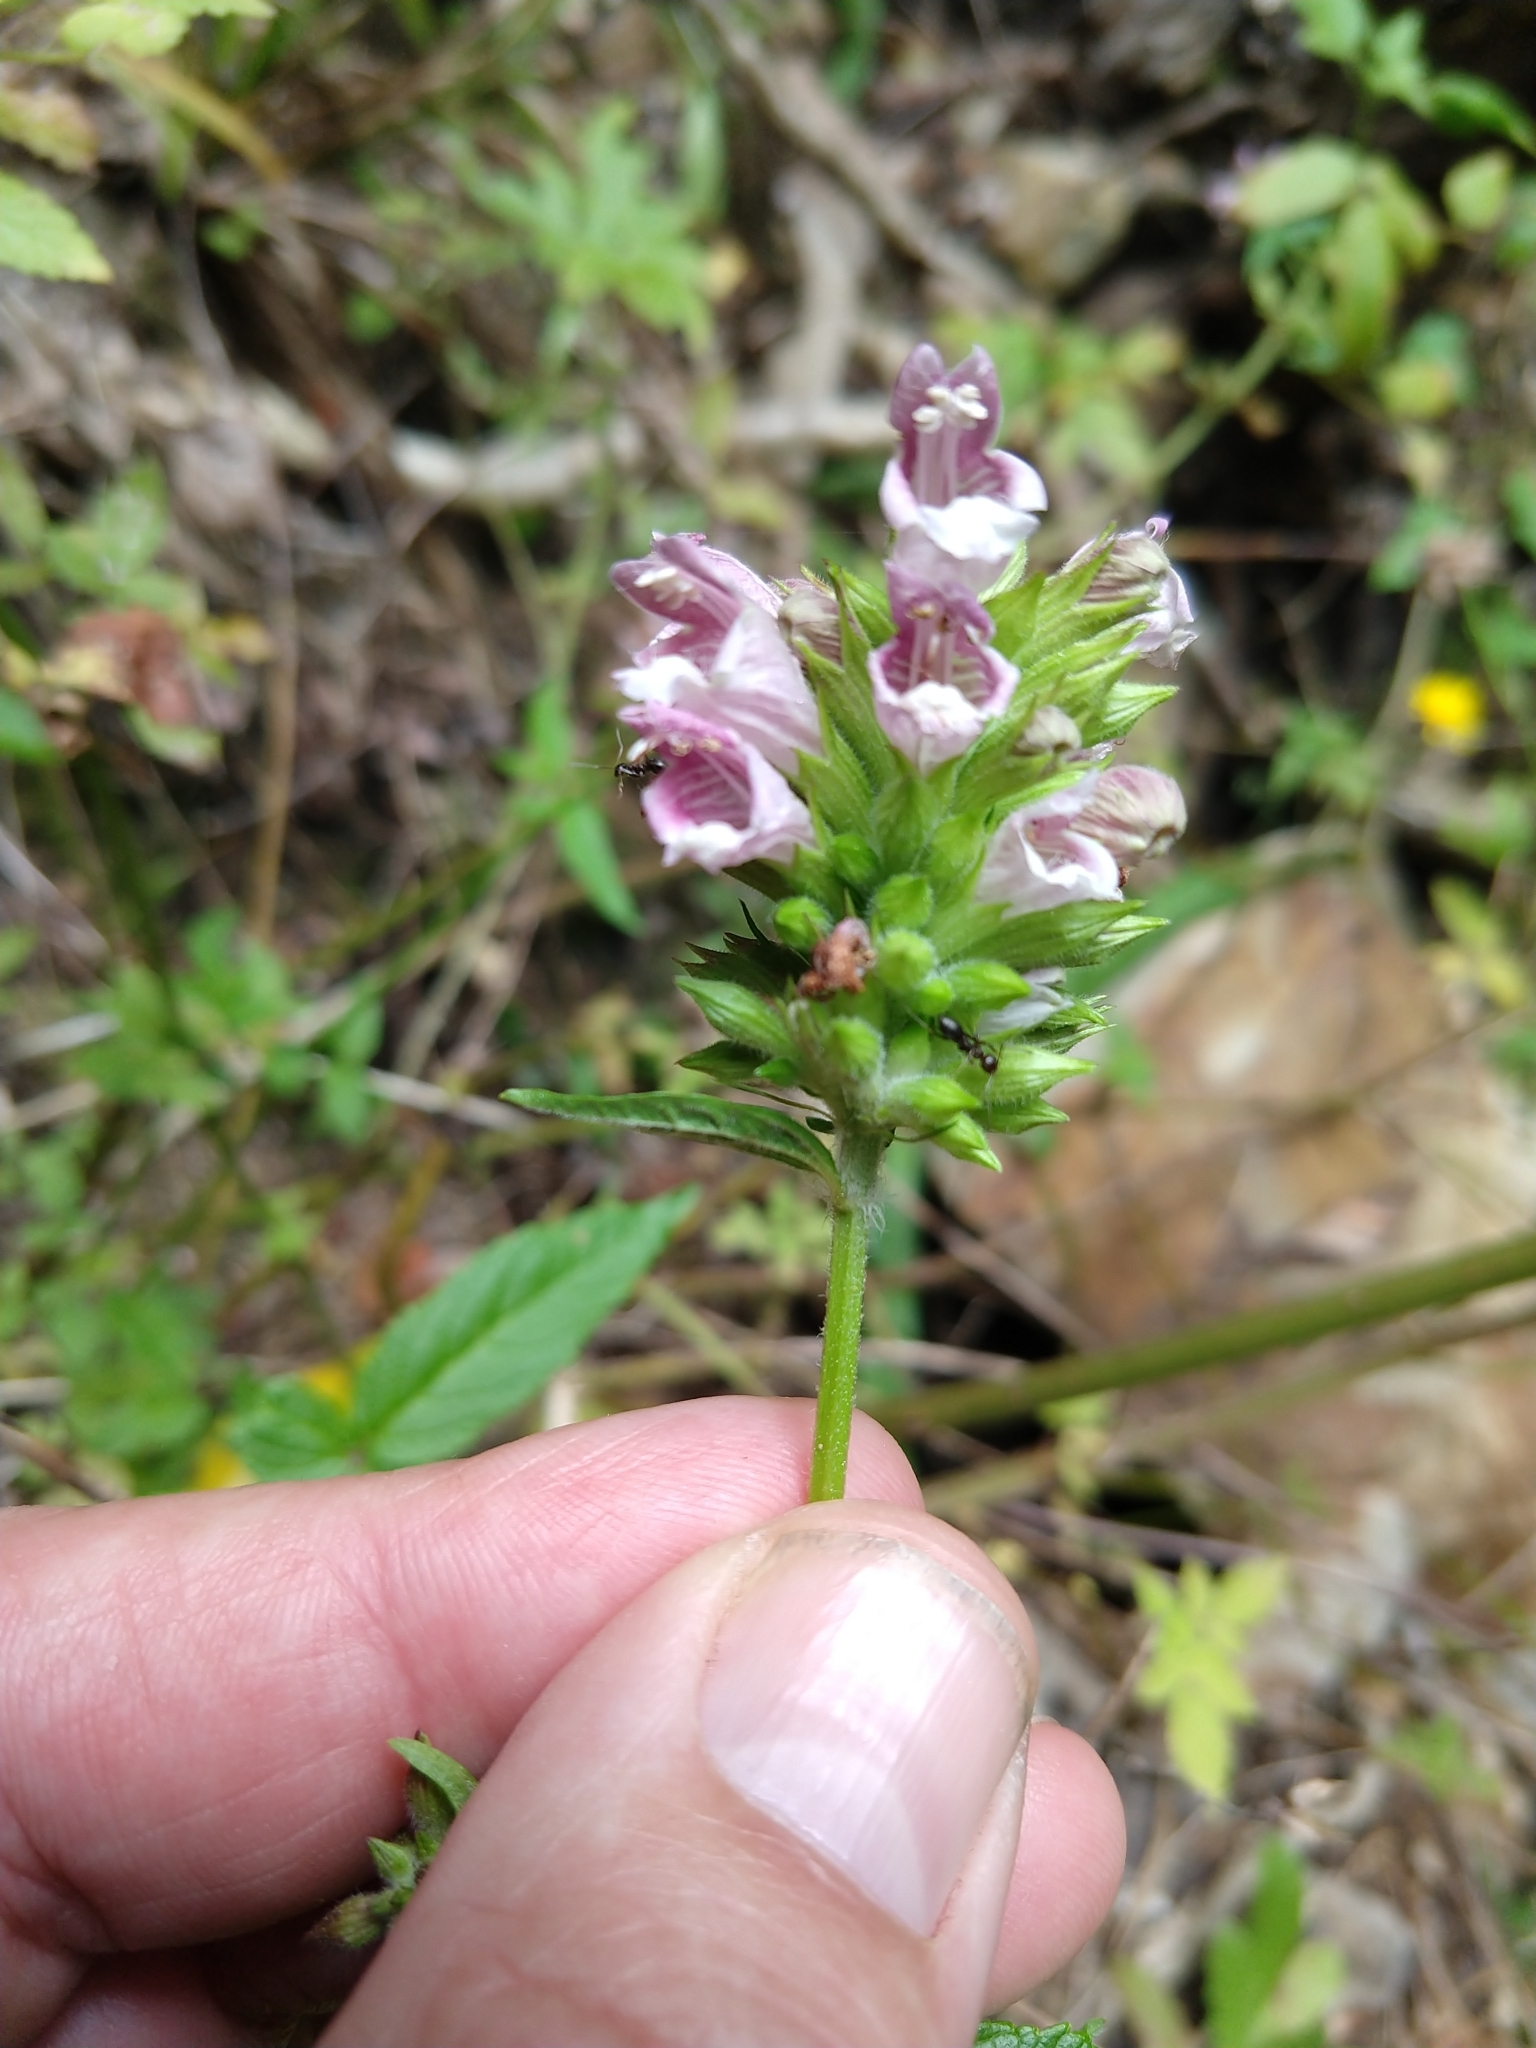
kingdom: Plantae
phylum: Tracheophyta
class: Magnoliopsida
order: Lamiales
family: Lamiaceae
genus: Cedronella
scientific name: Cedronella canariensis
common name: Canary islands balm
